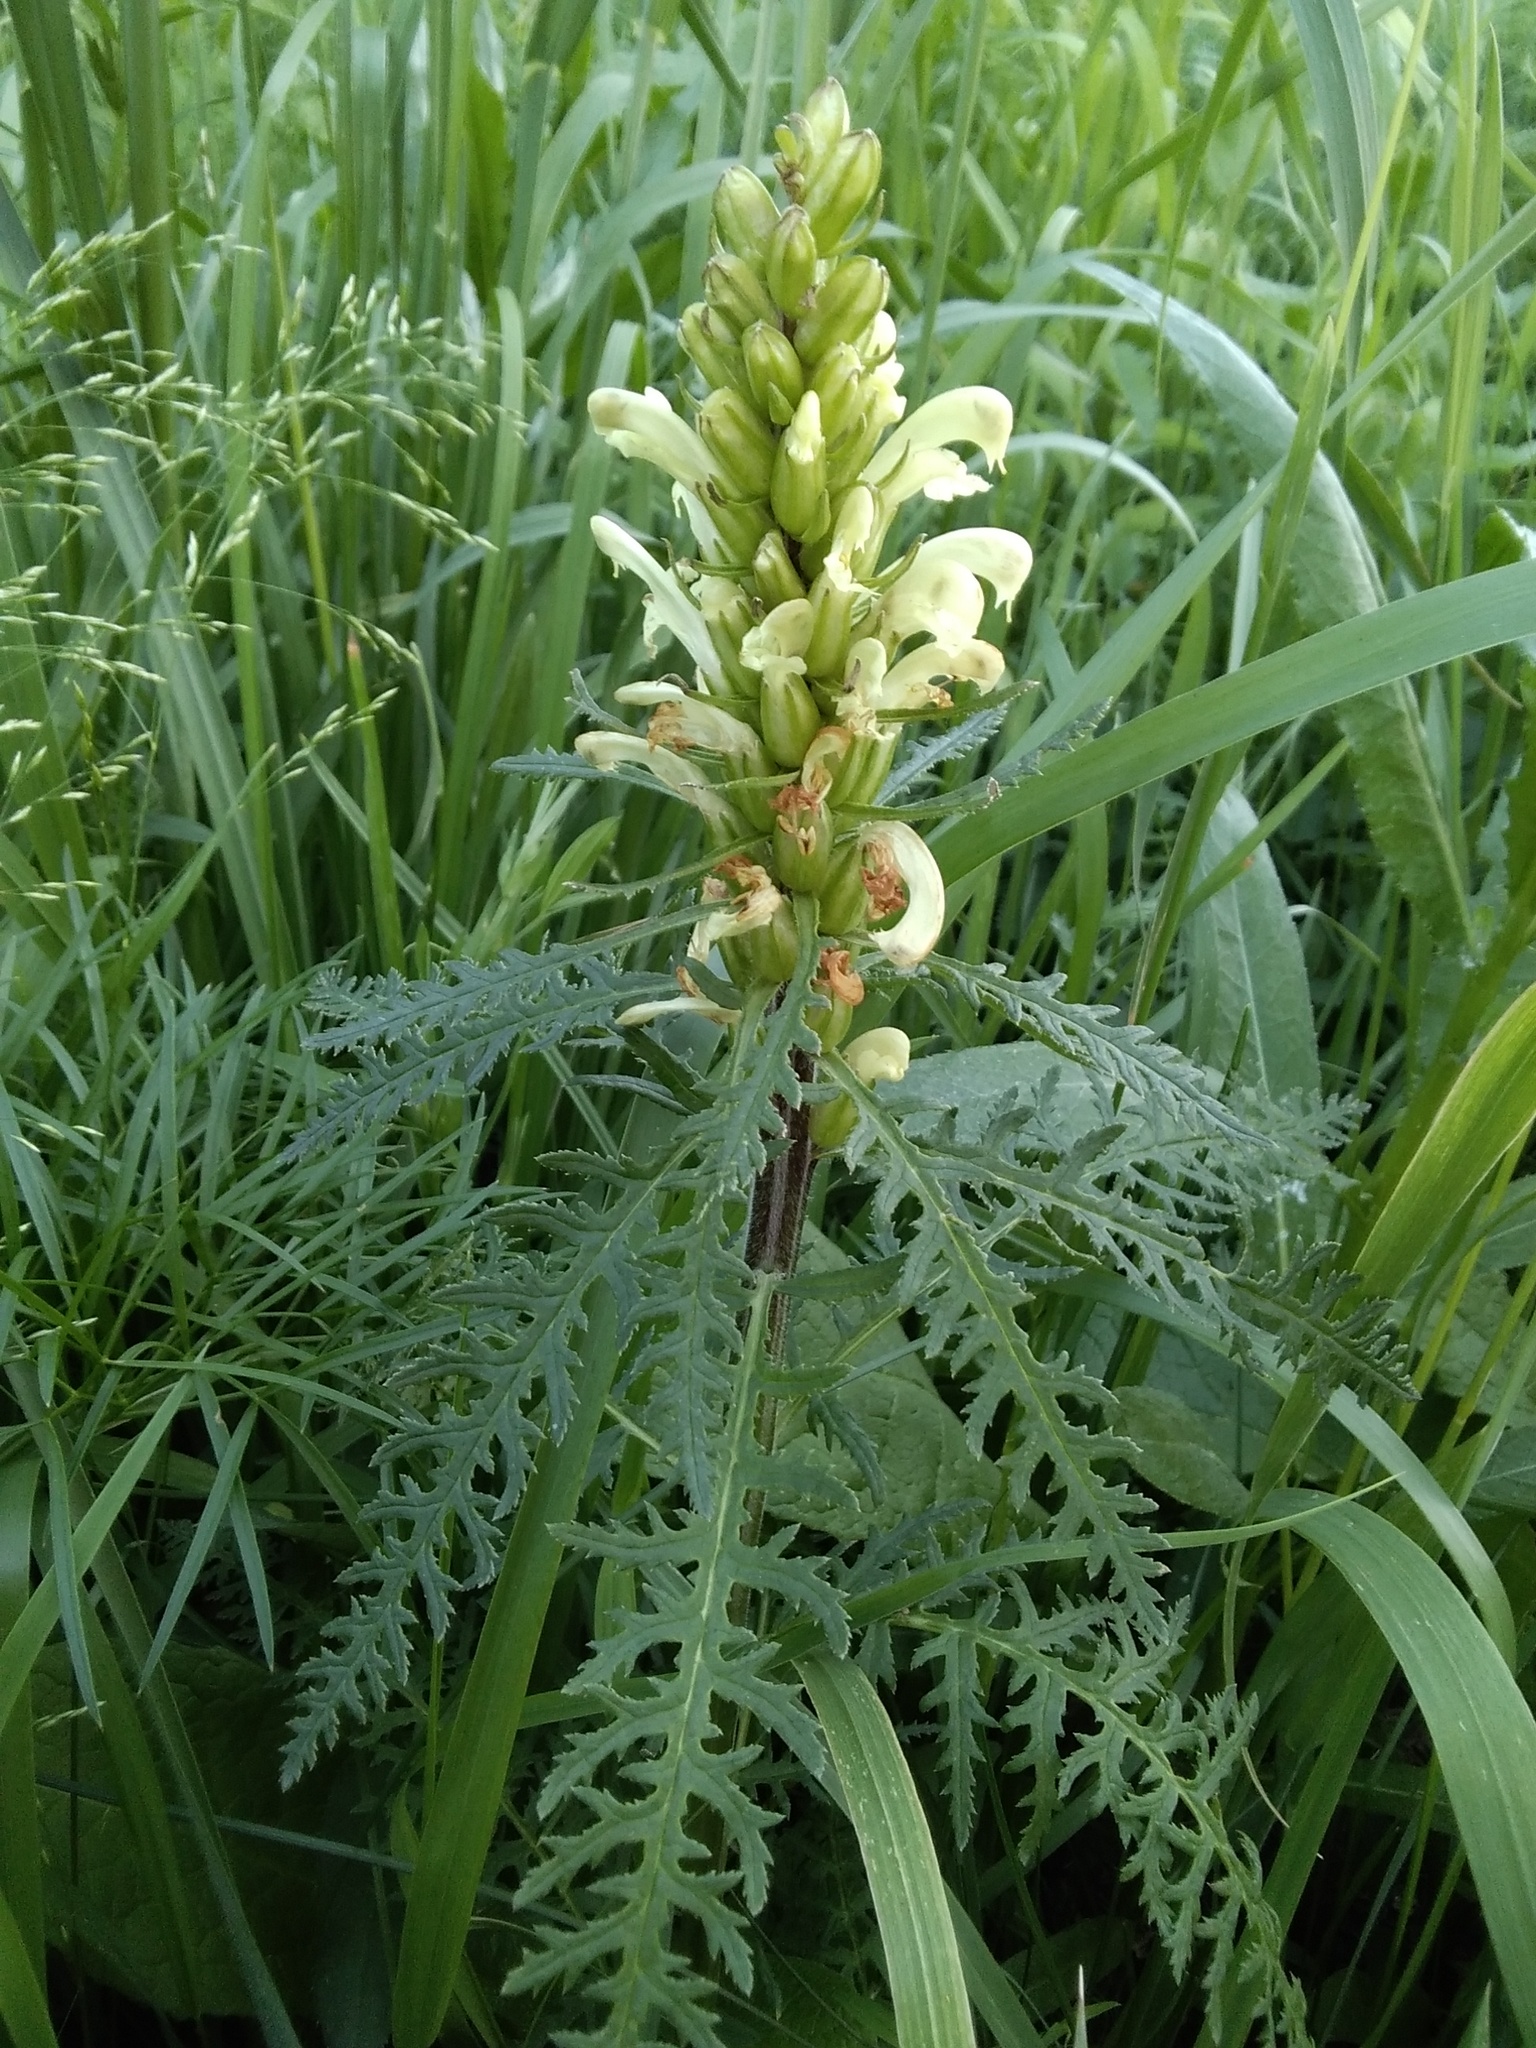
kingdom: Plantae
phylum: Tracheophyta
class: Magnoliopsida
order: Lamiales
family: Orobanchaceae
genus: Pedicularis
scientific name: Pedicularis sibirica
